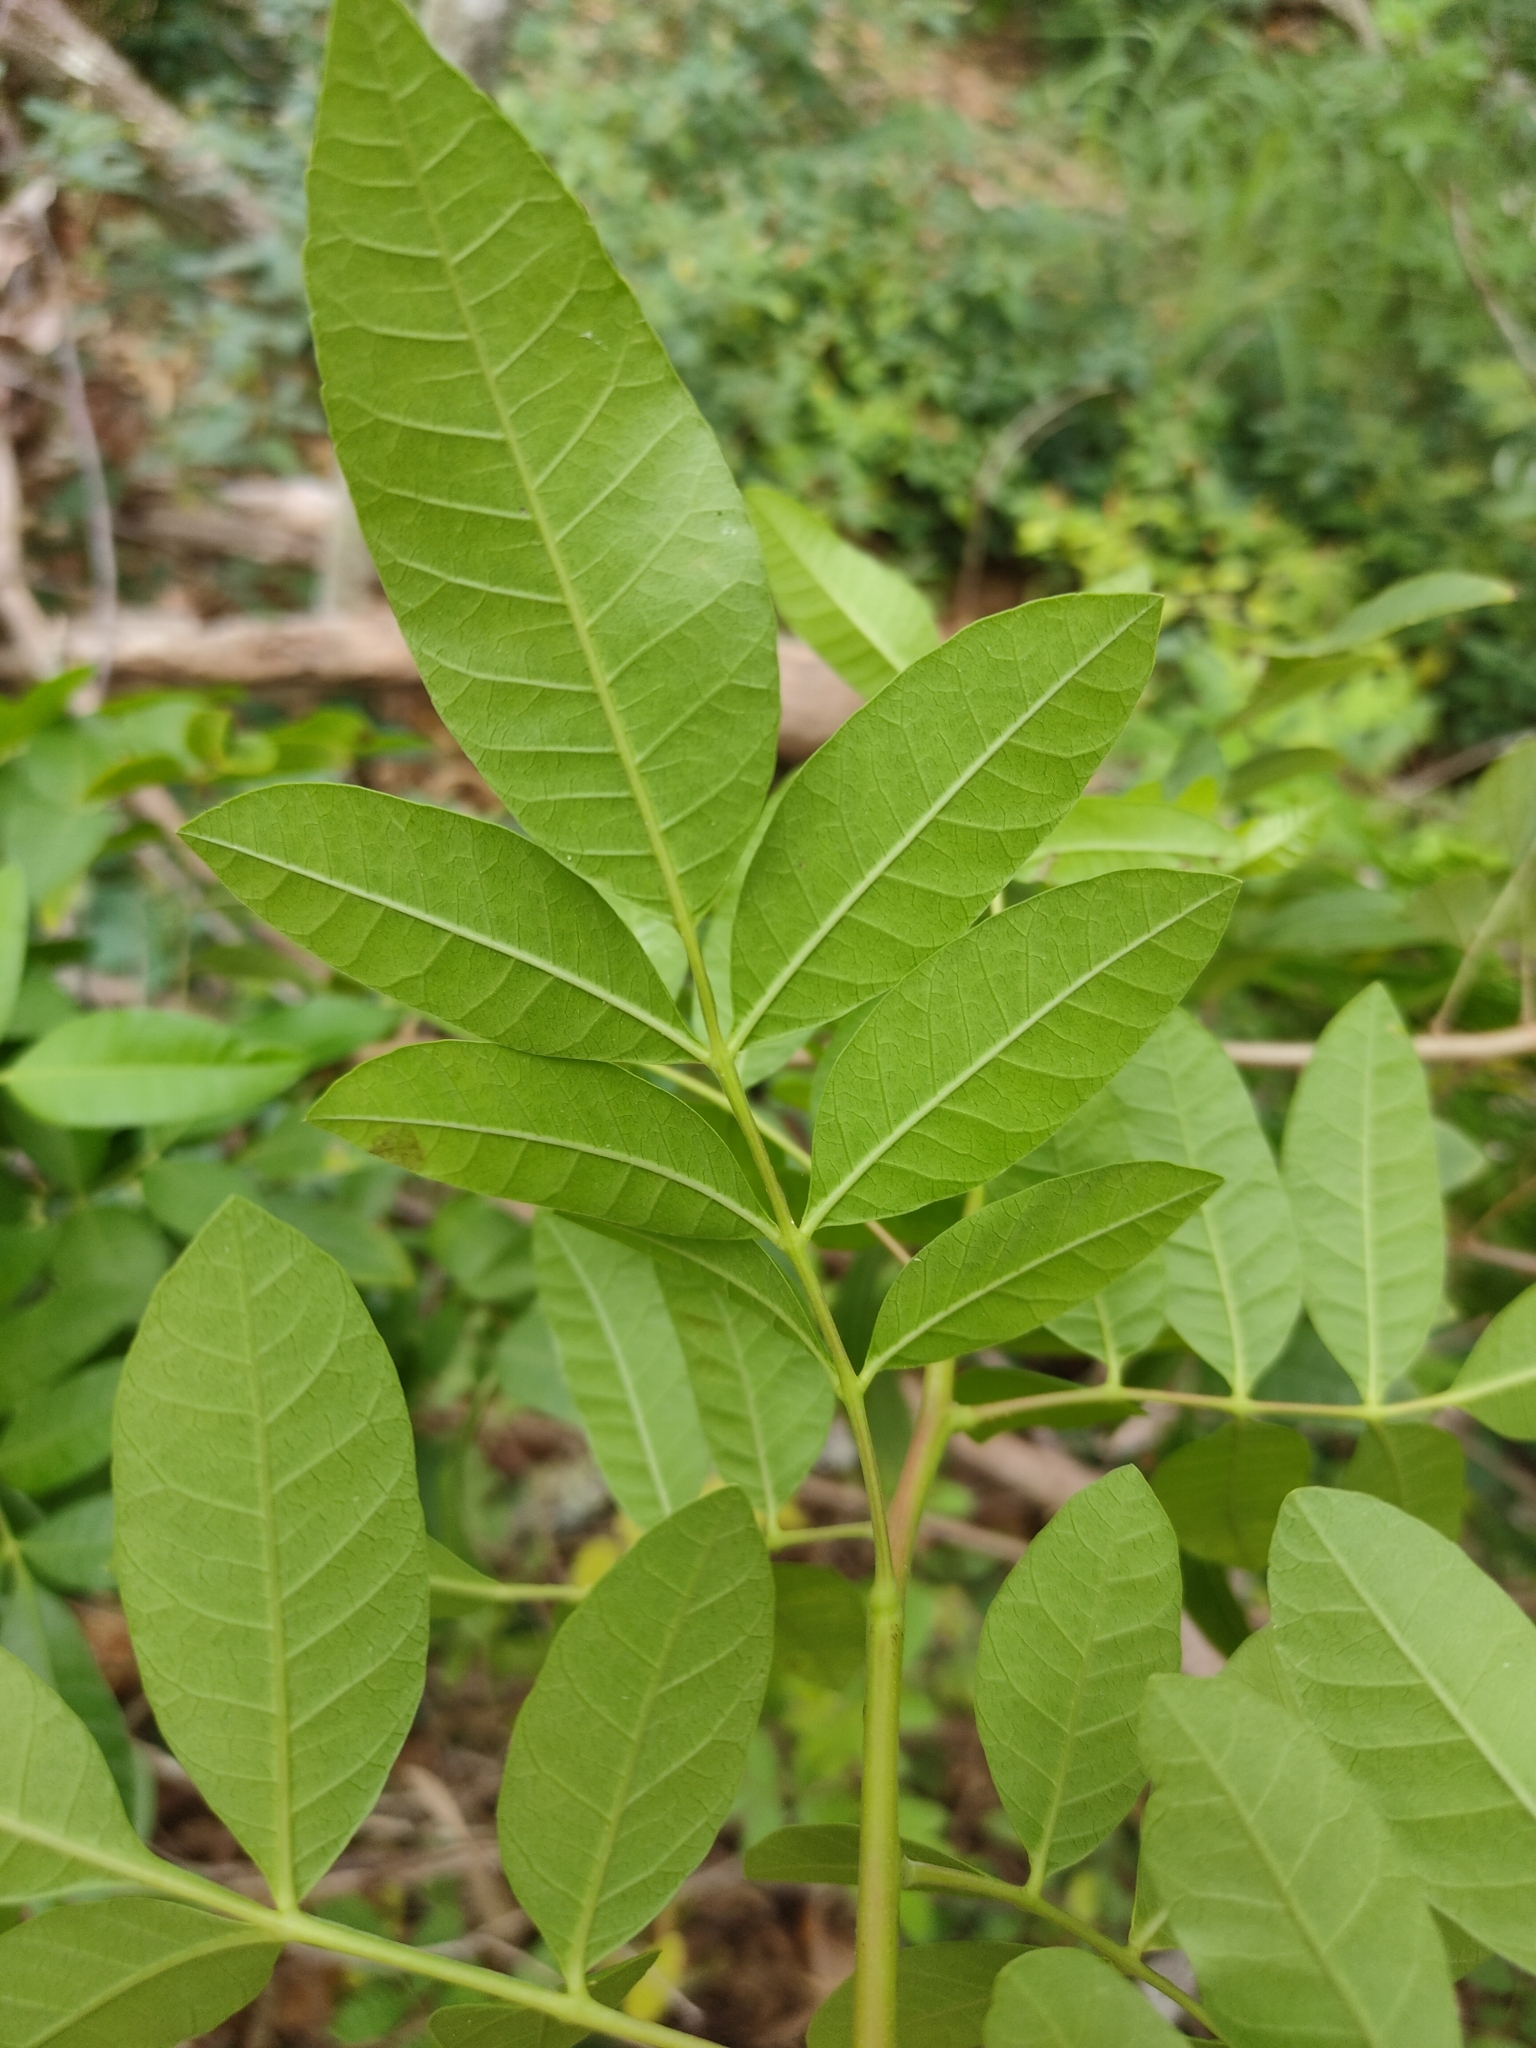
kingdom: Plantae
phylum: Tracheophyta
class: Magnoliopsida
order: Sapindales
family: Anacardiaceae
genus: Schinus
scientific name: Schinus terebinthifolia
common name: Brazilian peppertree
